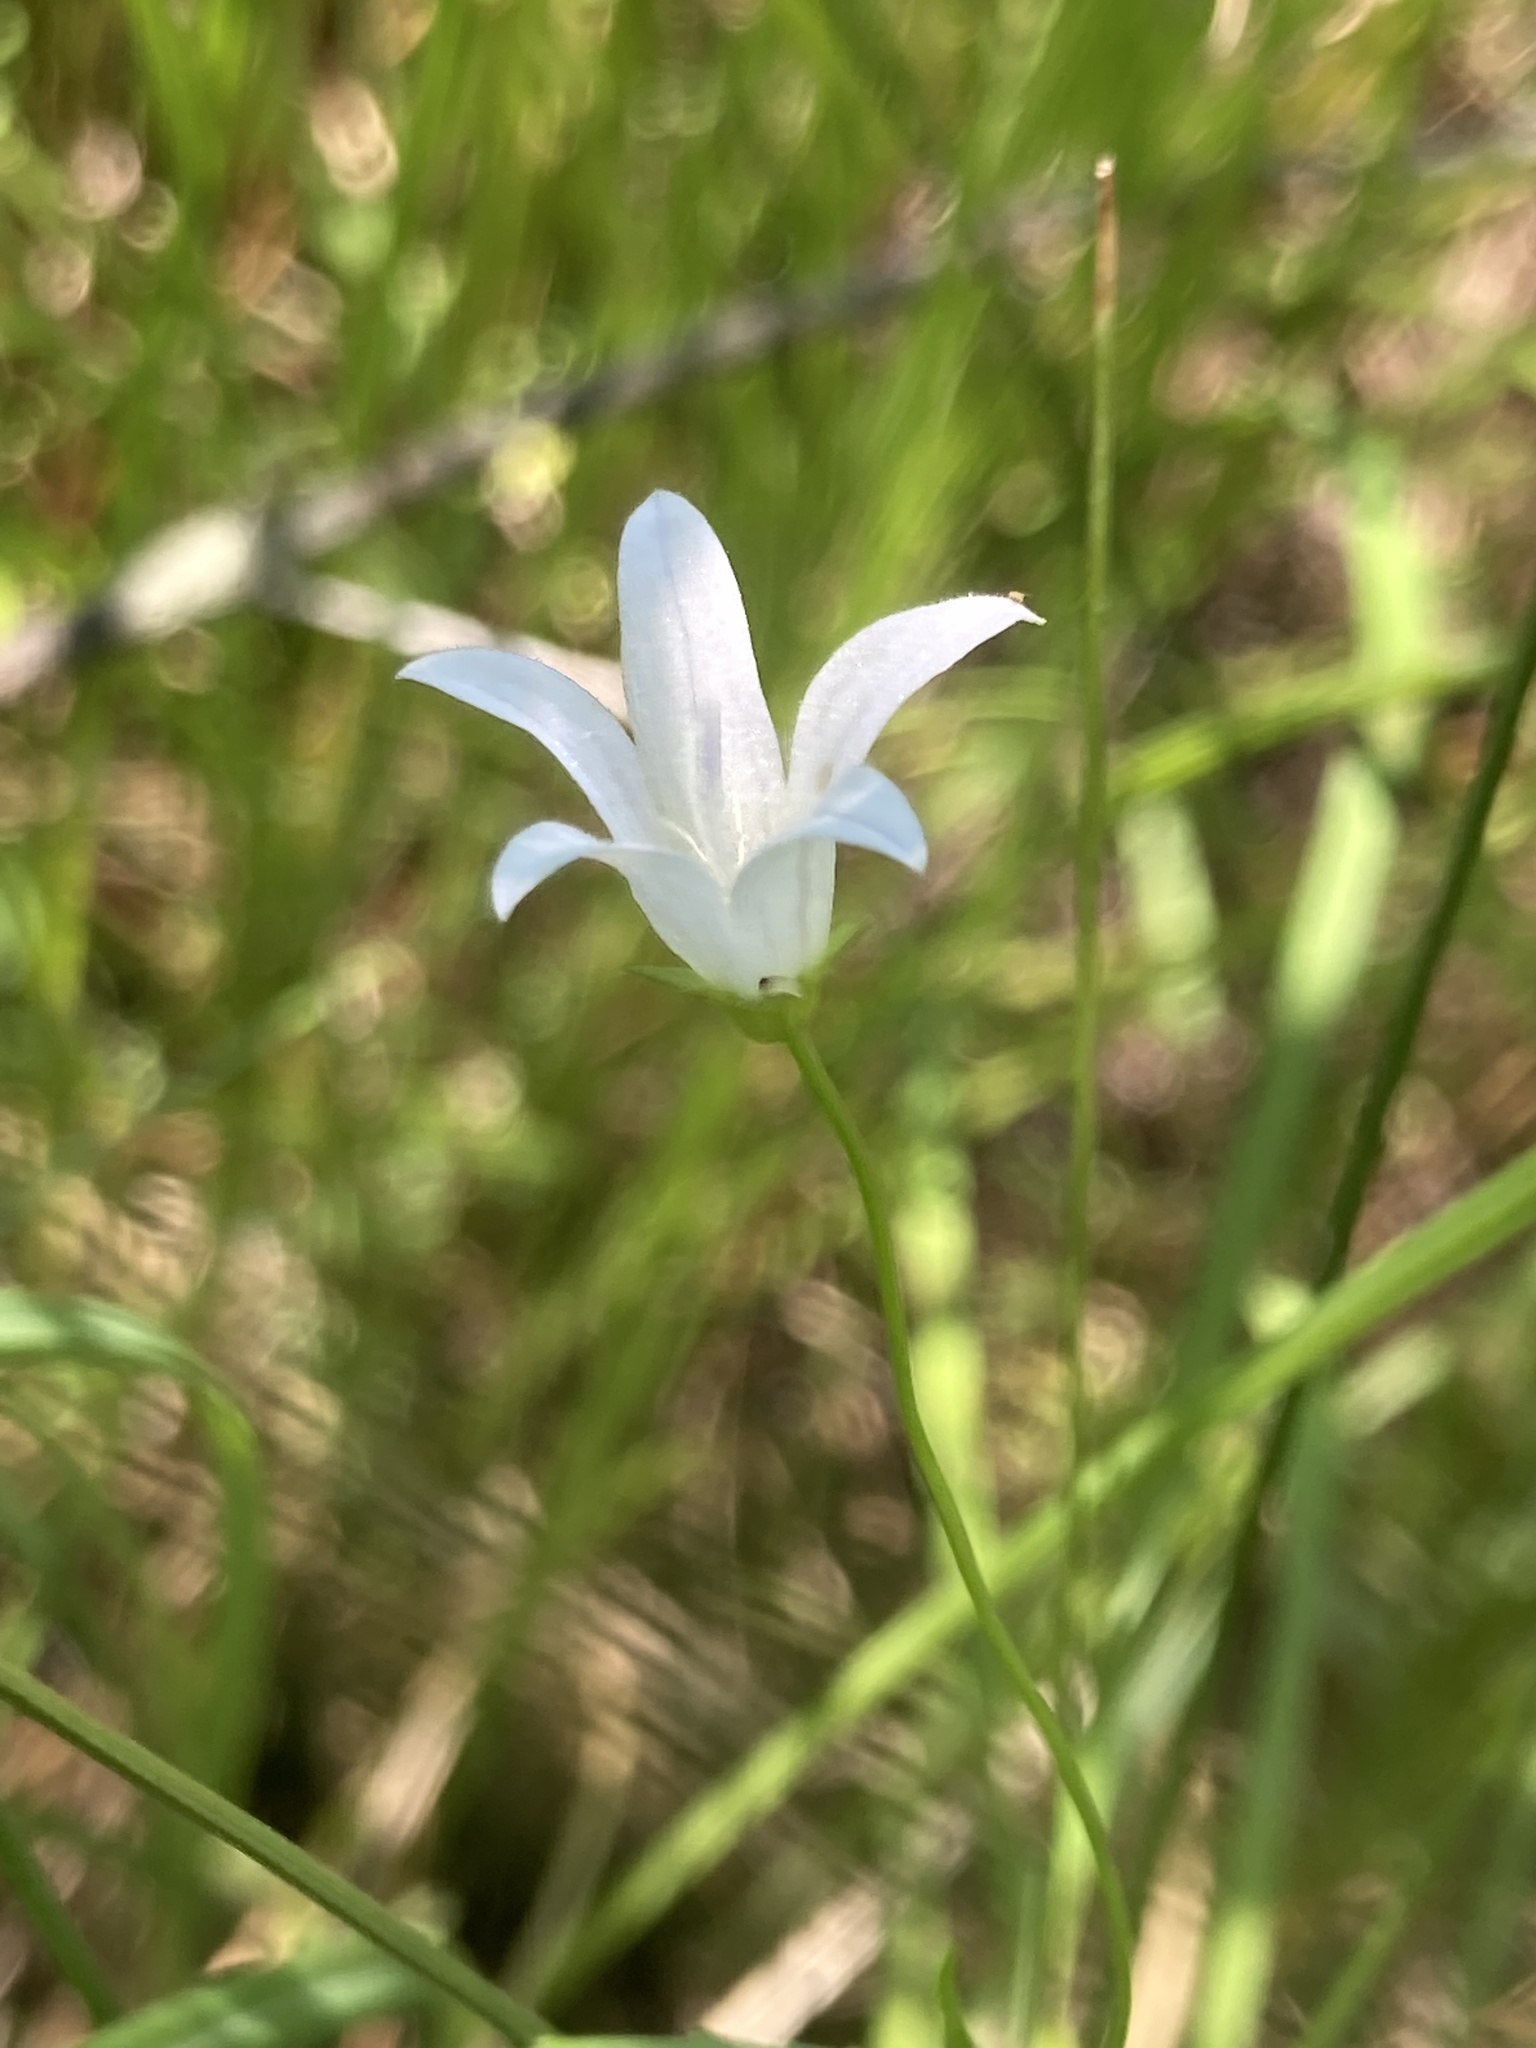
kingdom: Plantae
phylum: Tracheophyta
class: Magnoliopsida
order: Asterales
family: Campanulaceae
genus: Palustricodon
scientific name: Palustricodon aparinoides
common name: Bedstraw bellflower
